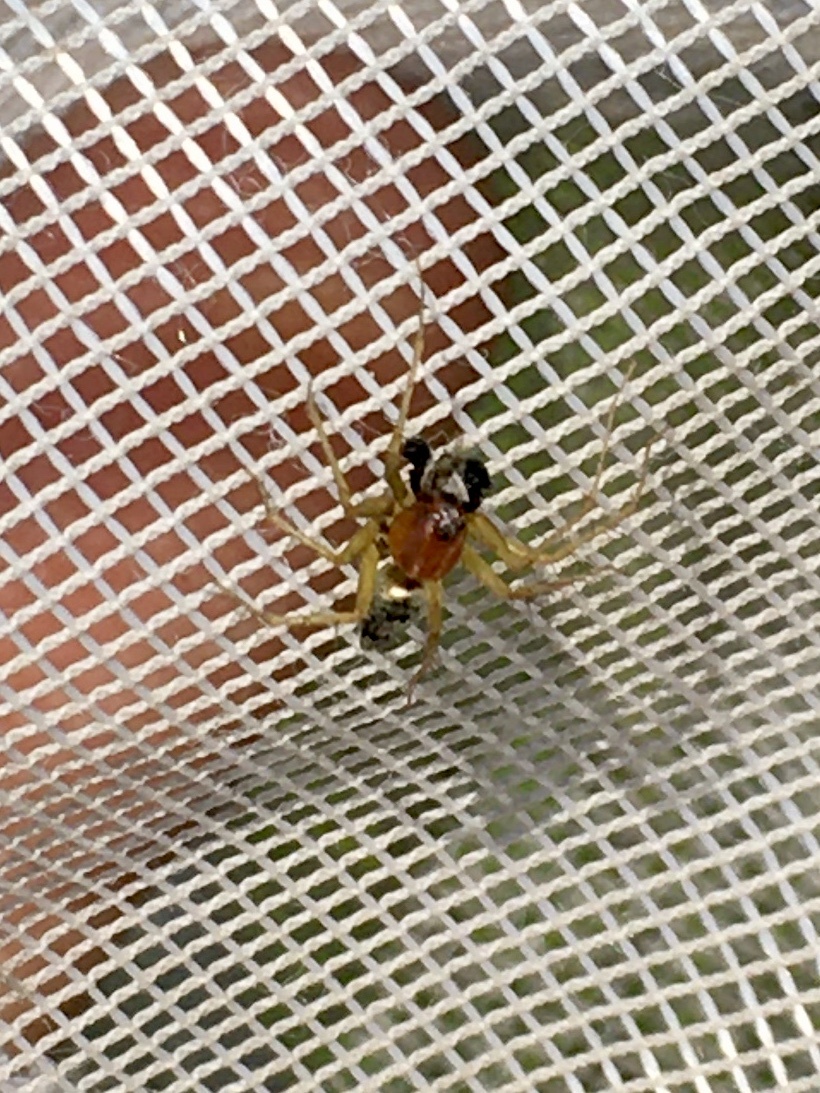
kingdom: Animalia
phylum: Arthropoda
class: Arachnida
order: Araneae
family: Oxyopidae
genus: Oxyopes
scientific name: Oxyopes salticus
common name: Lynx spiders
